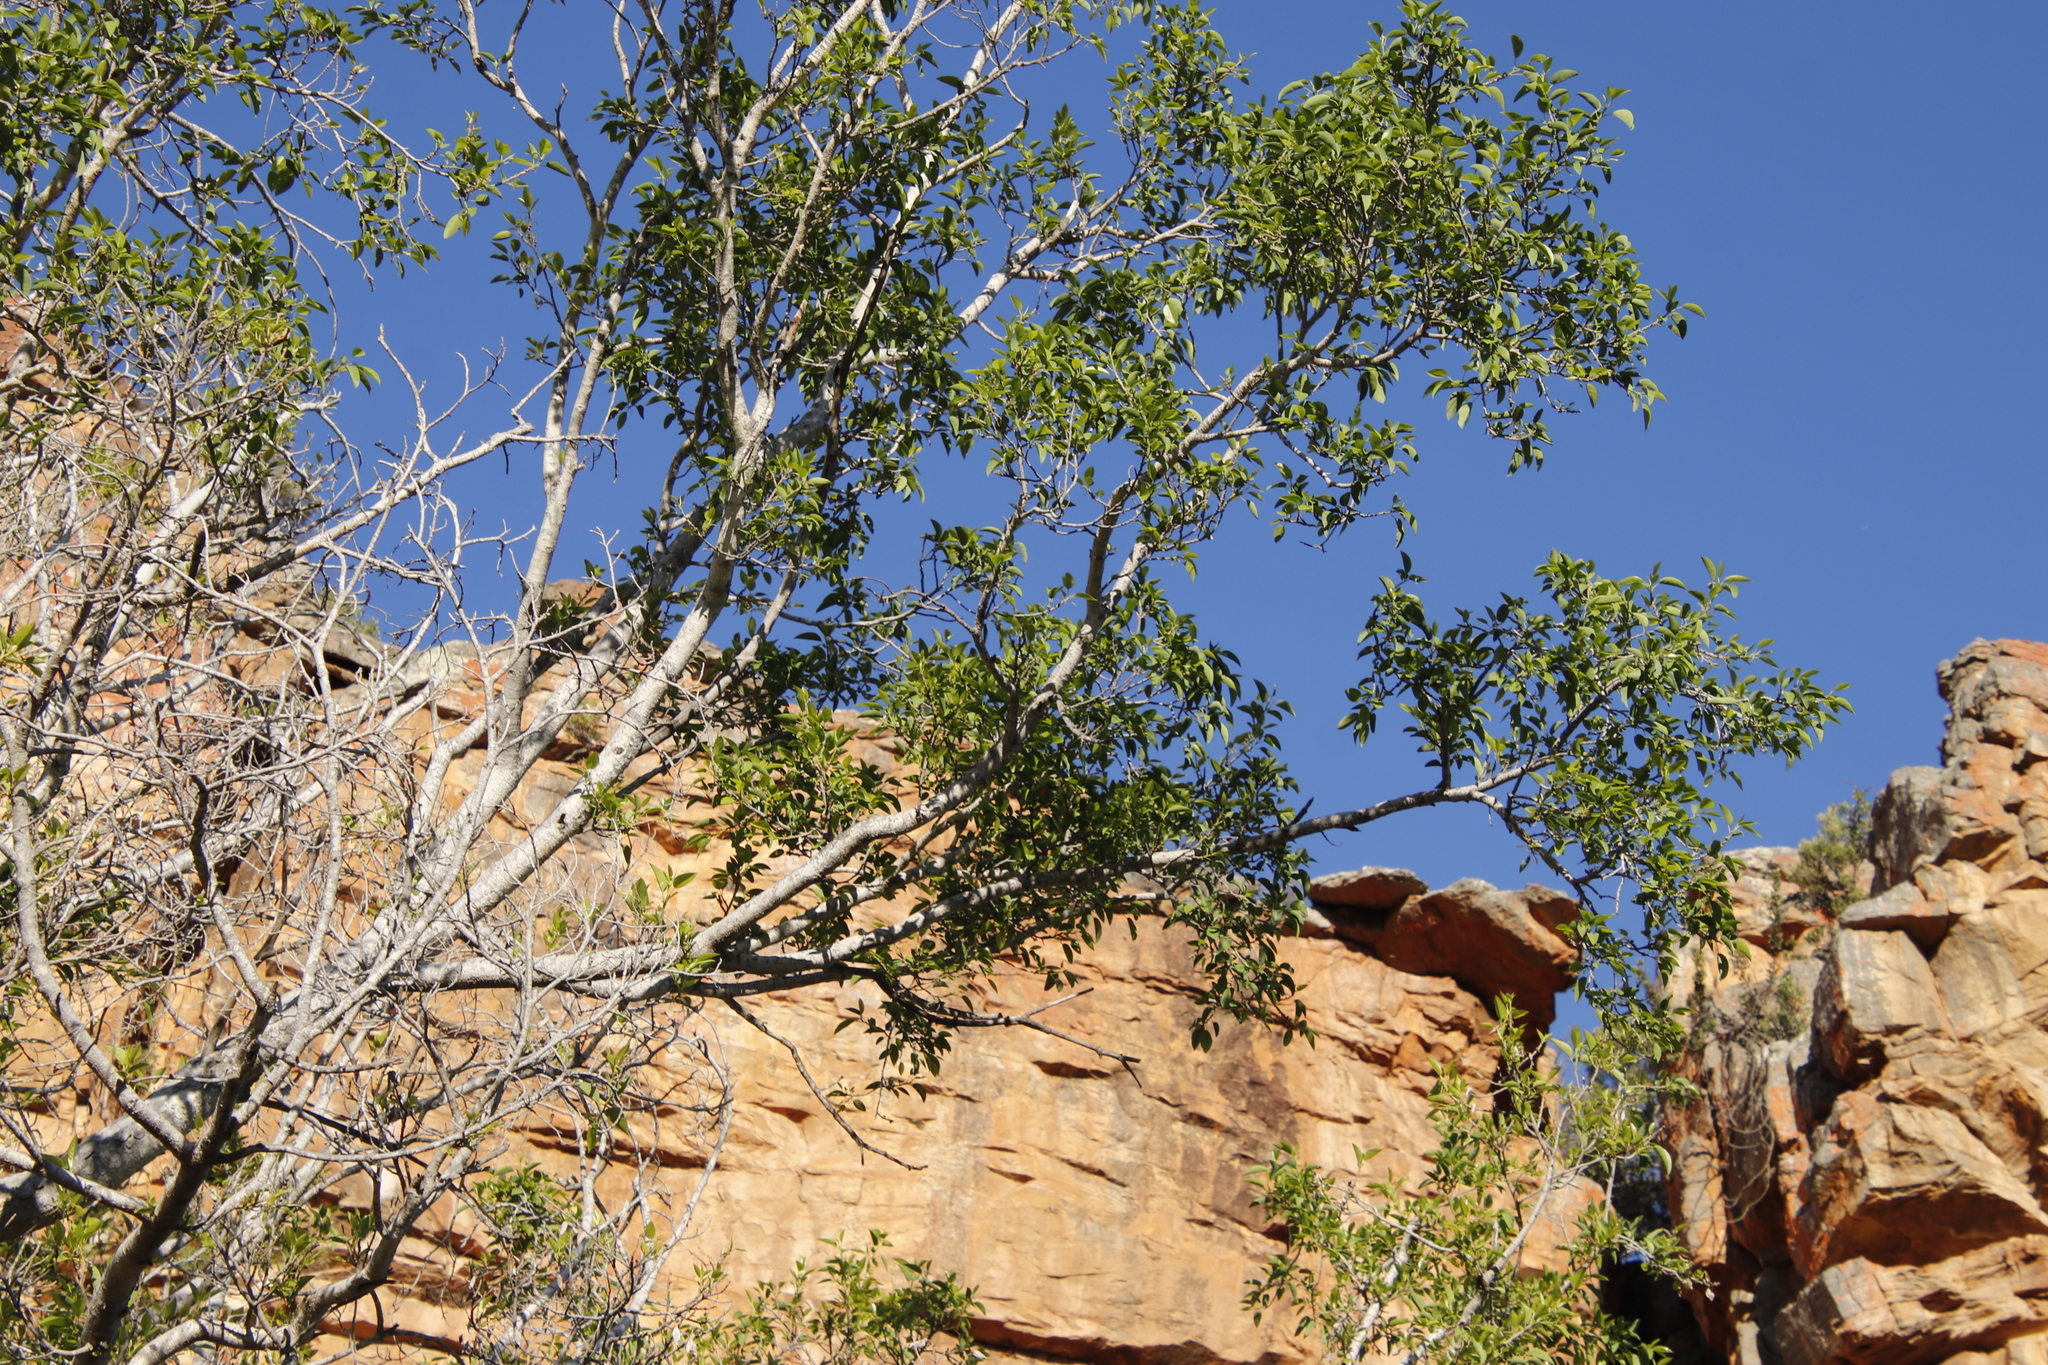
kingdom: Plantae
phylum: Tracheophyta
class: Magnoliopsida
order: Rosales
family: Moraceae
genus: Ficus
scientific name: Ficus cordata
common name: Namaqua rock fig
